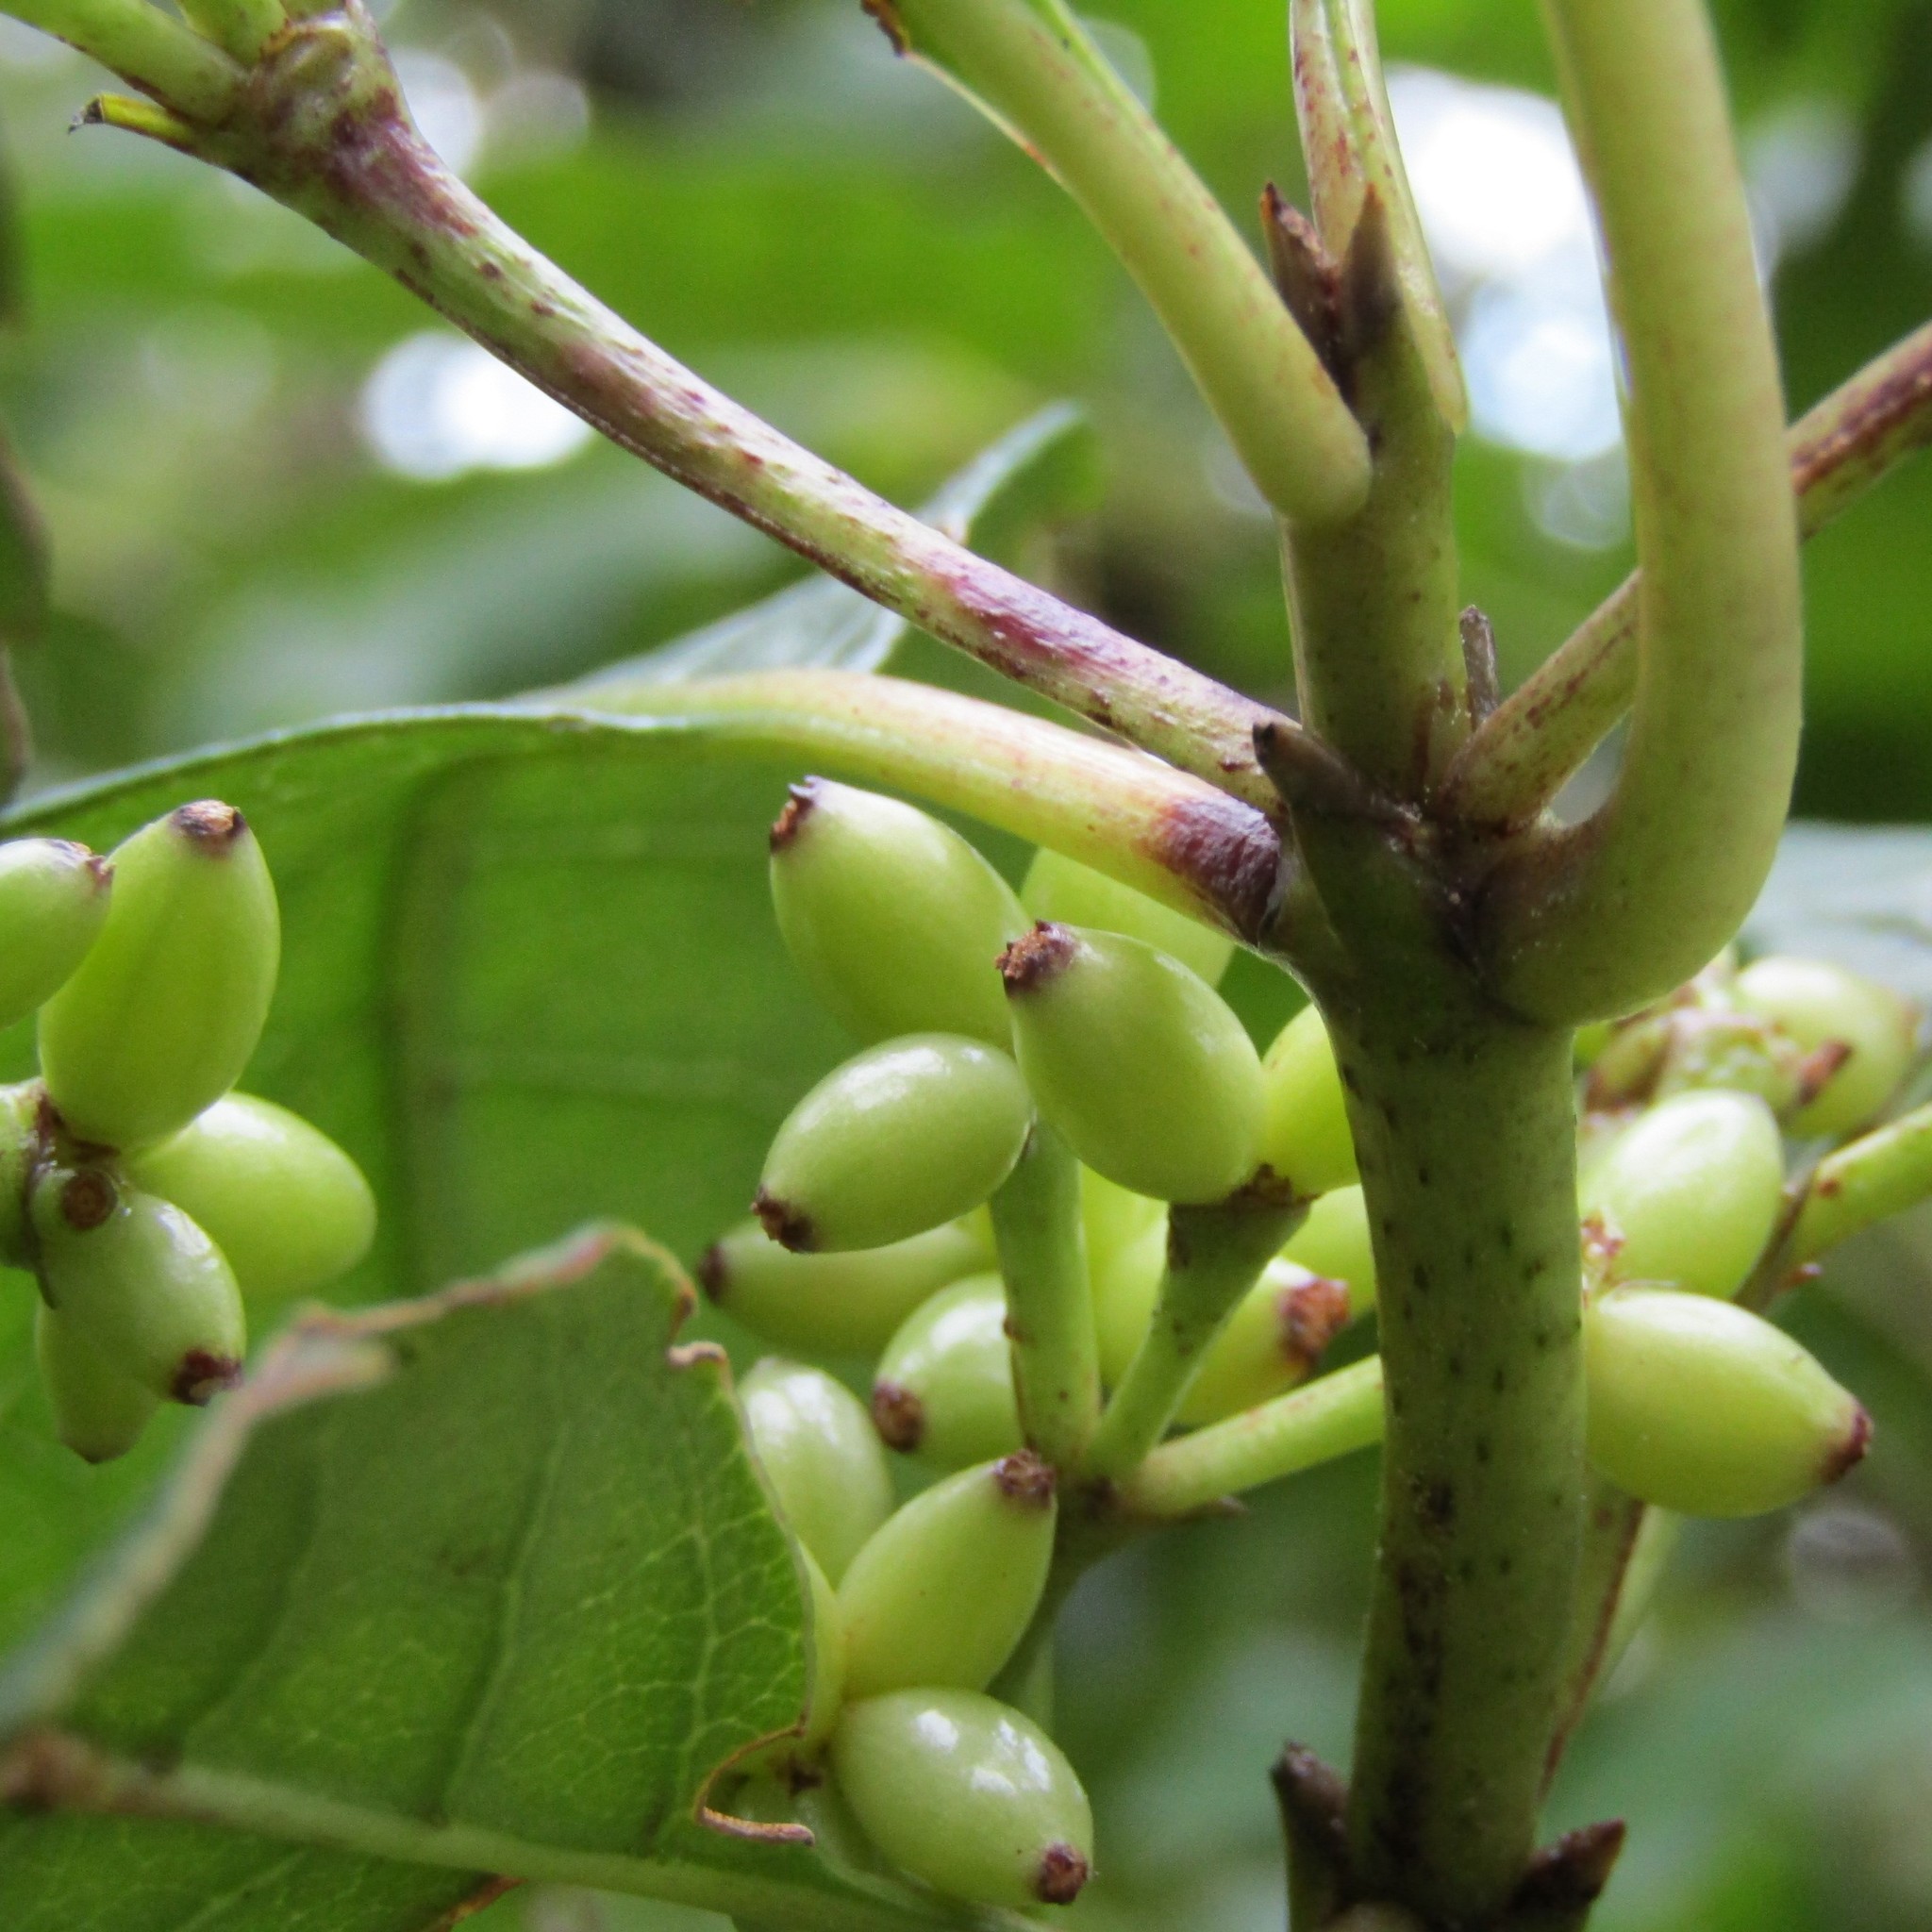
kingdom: Plantae
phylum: Tracheophyta
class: Magnoliopsida
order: Gentianales
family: Rubiaceae
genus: Coprosma
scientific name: Coprosma autumnalis
